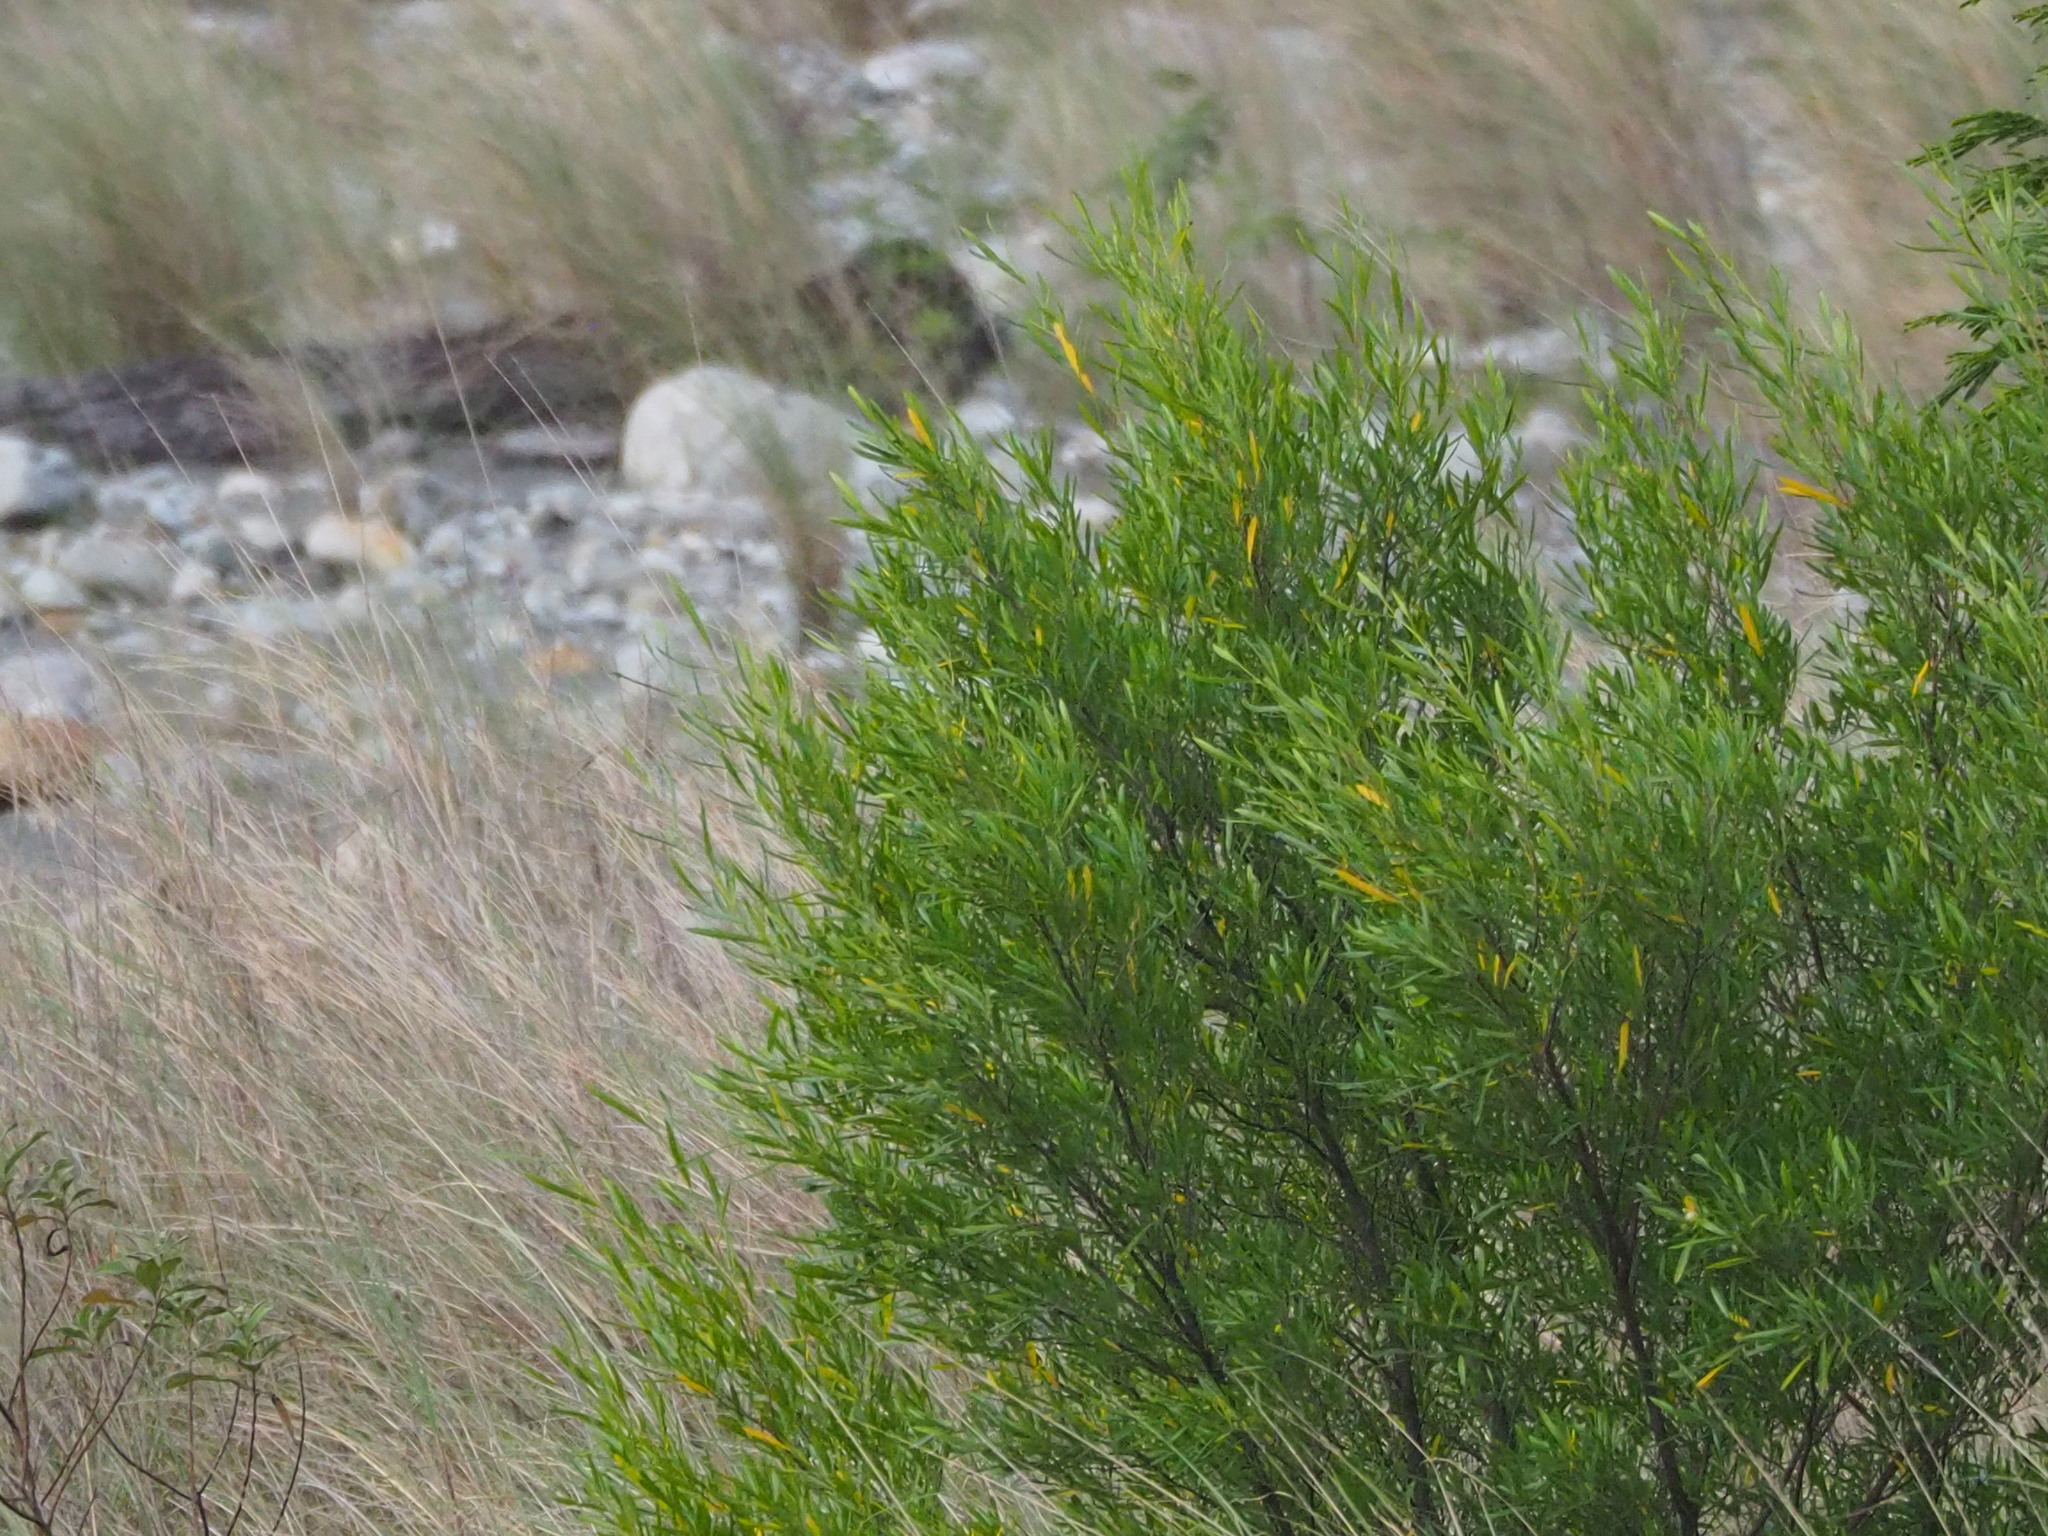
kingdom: Plantae
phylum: Tracheophyta
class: Magnoliopsida
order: Sapindales
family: Sapindaceae
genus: Dodonaea
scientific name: Dodonaea viscosa
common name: Hopbush
